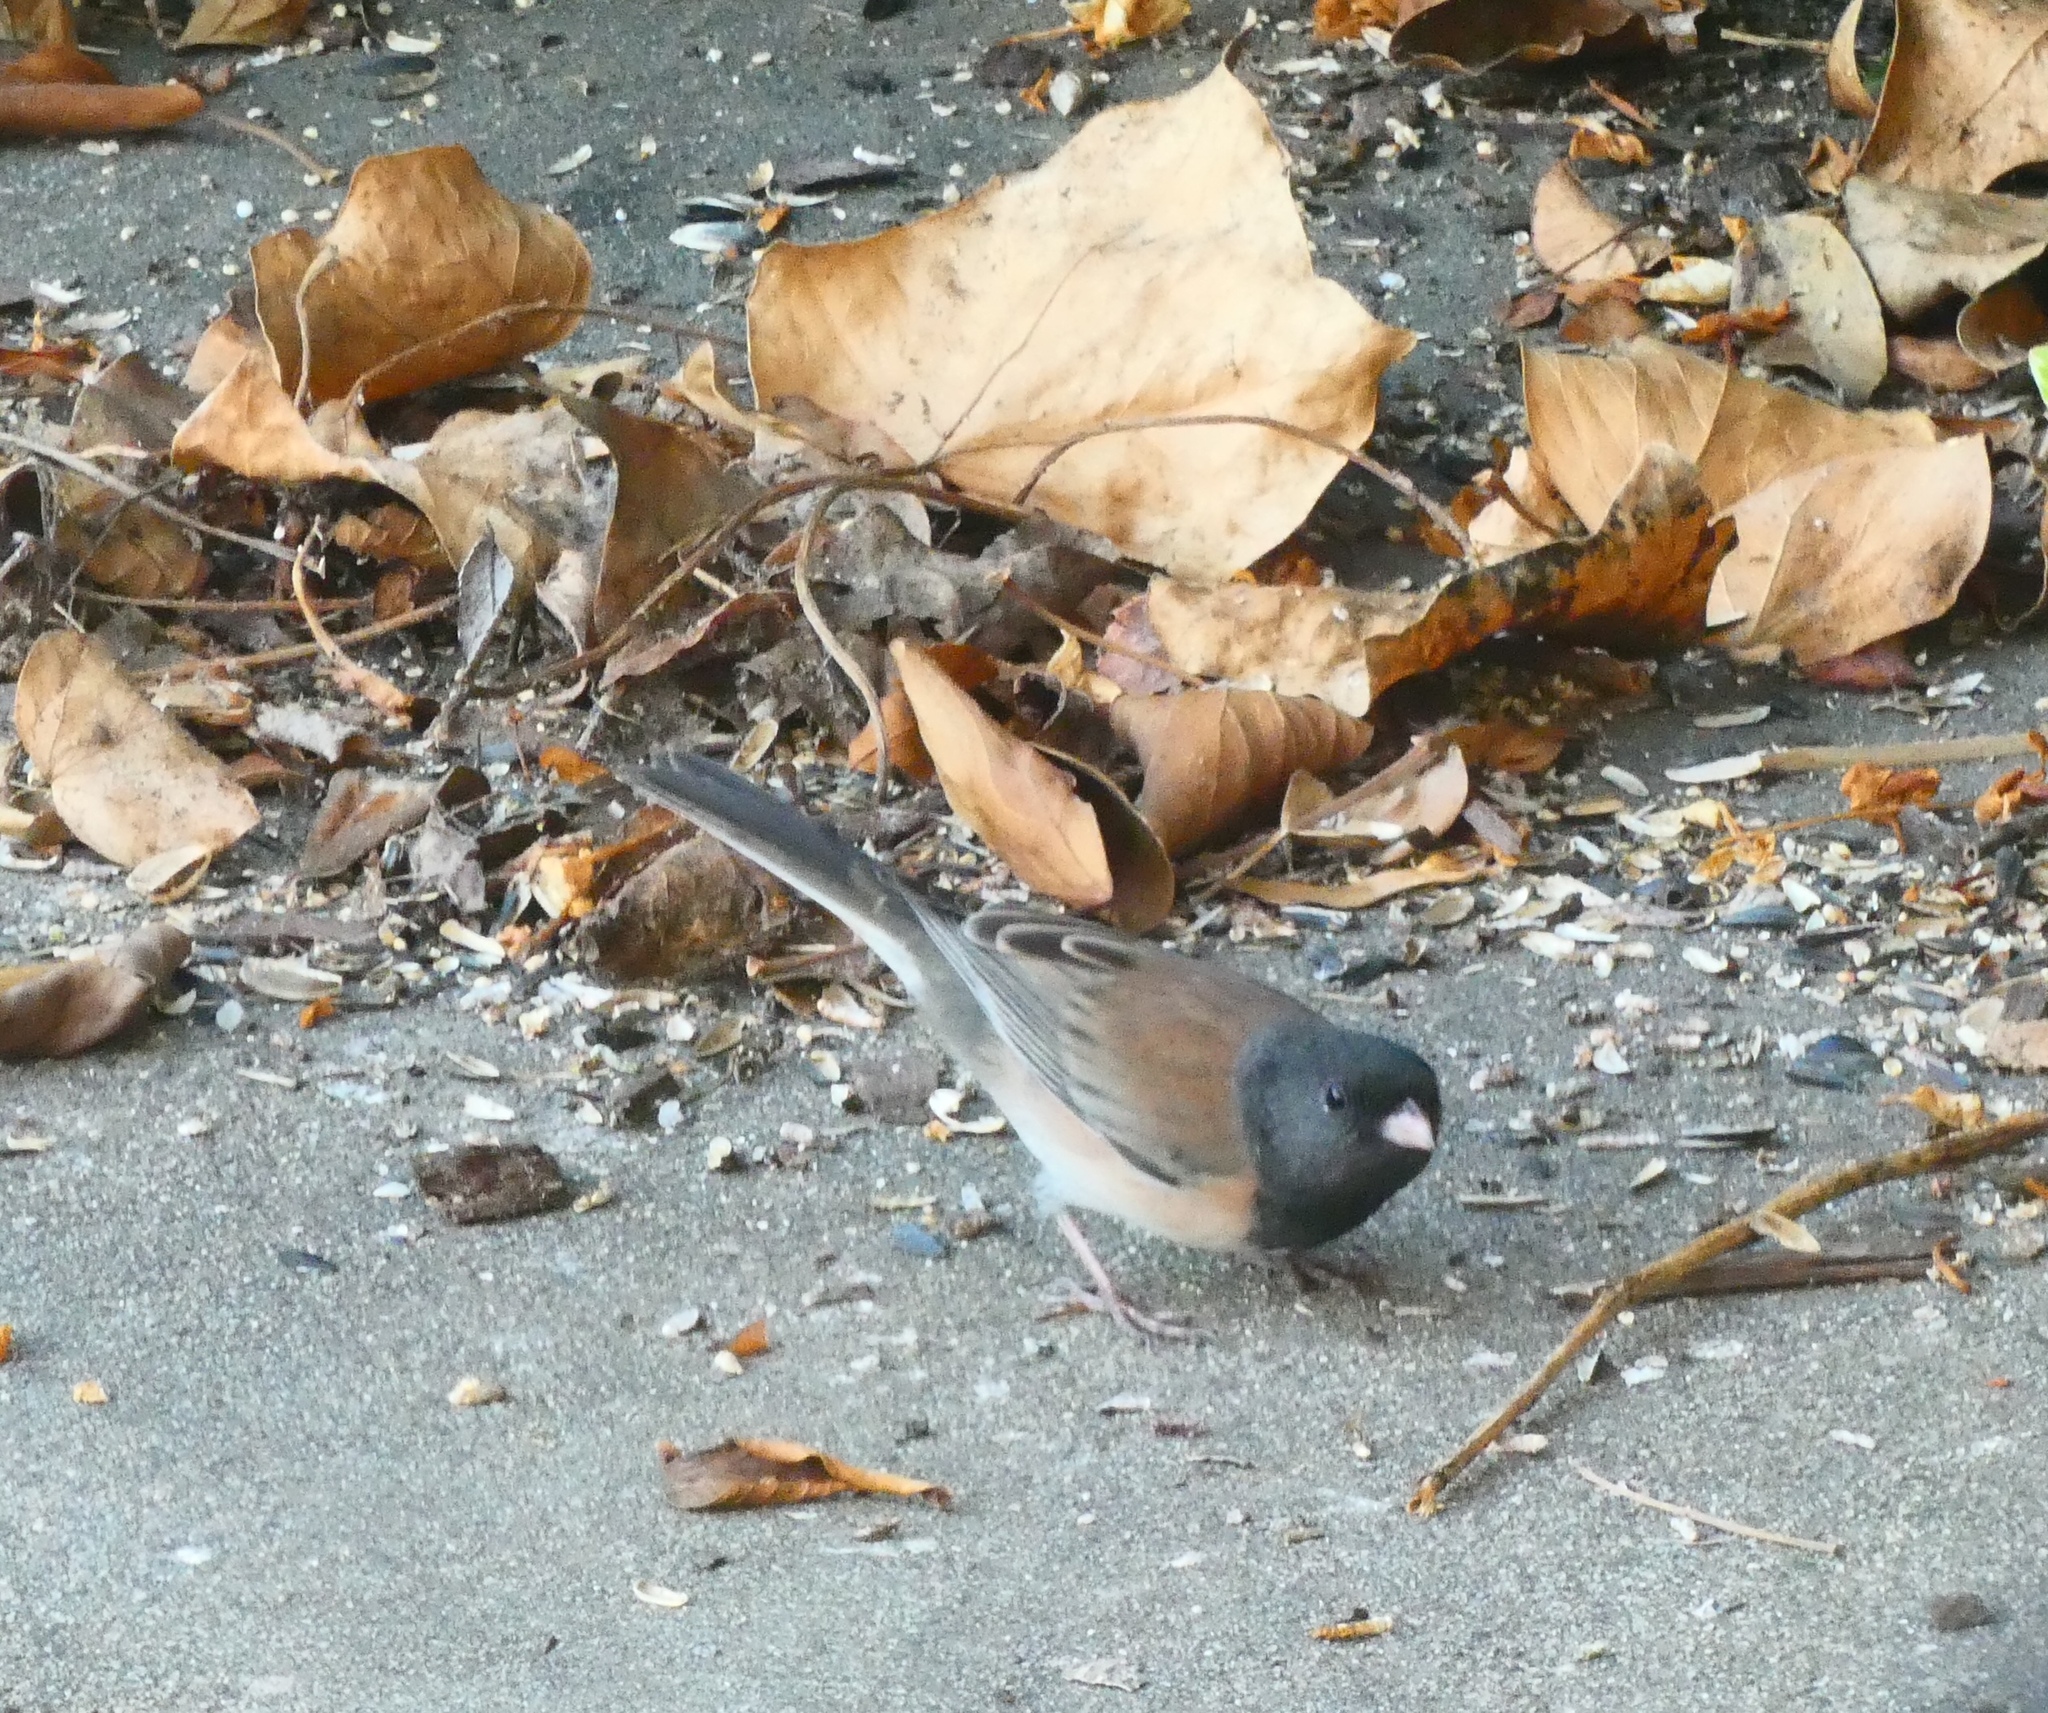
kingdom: Animalia
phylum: Chordata
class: Aves
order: Passeriformes
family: Passerellidae
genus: Junco
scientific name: Junco hyemalis
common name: Dark-eyed junco
